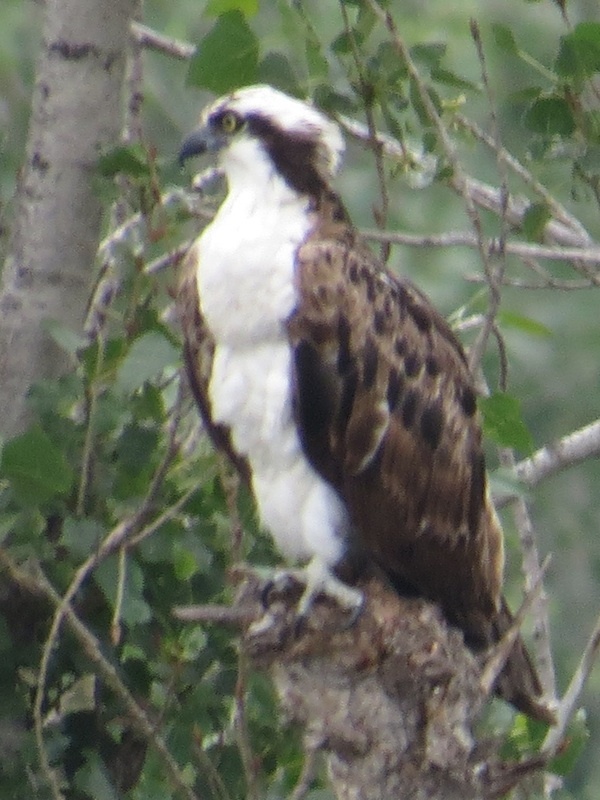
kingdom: Animalia
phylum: Chordata
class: Aves
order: Accipitriformes
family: Pandionidae
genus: Pandion
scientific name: Pandion haliaetus
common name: Osprey
